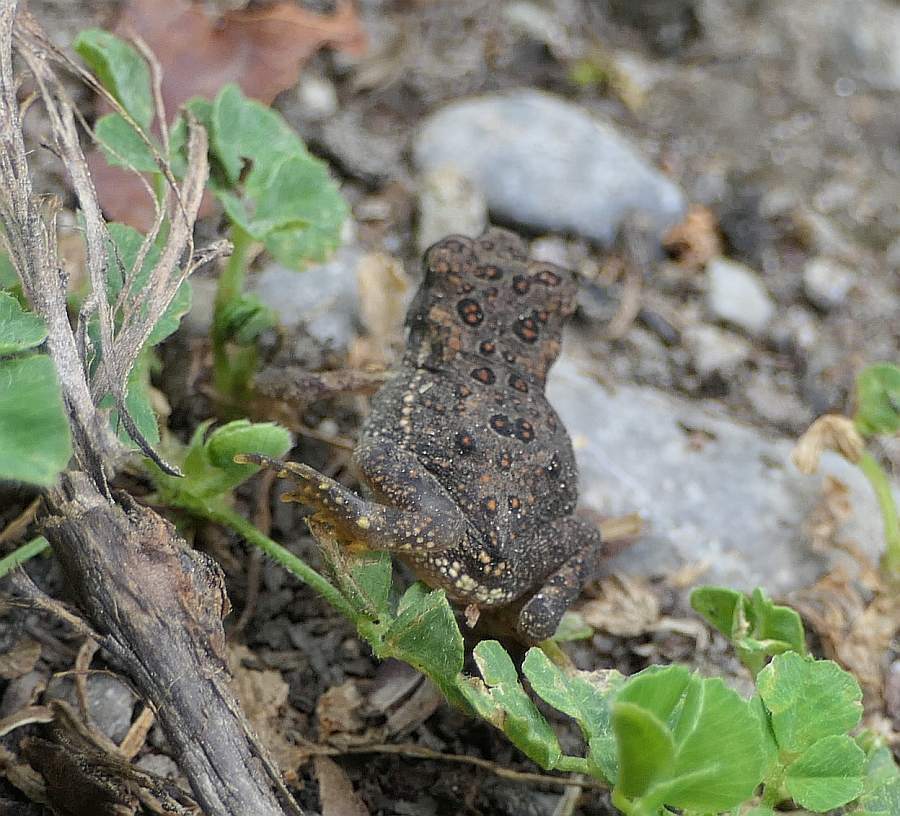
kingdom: Animalia
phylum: Chordata
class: Amphibia
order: Anura
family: Bufonidae
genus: Anaxyrus
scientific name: Anaxyrus americanus
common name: American toad
